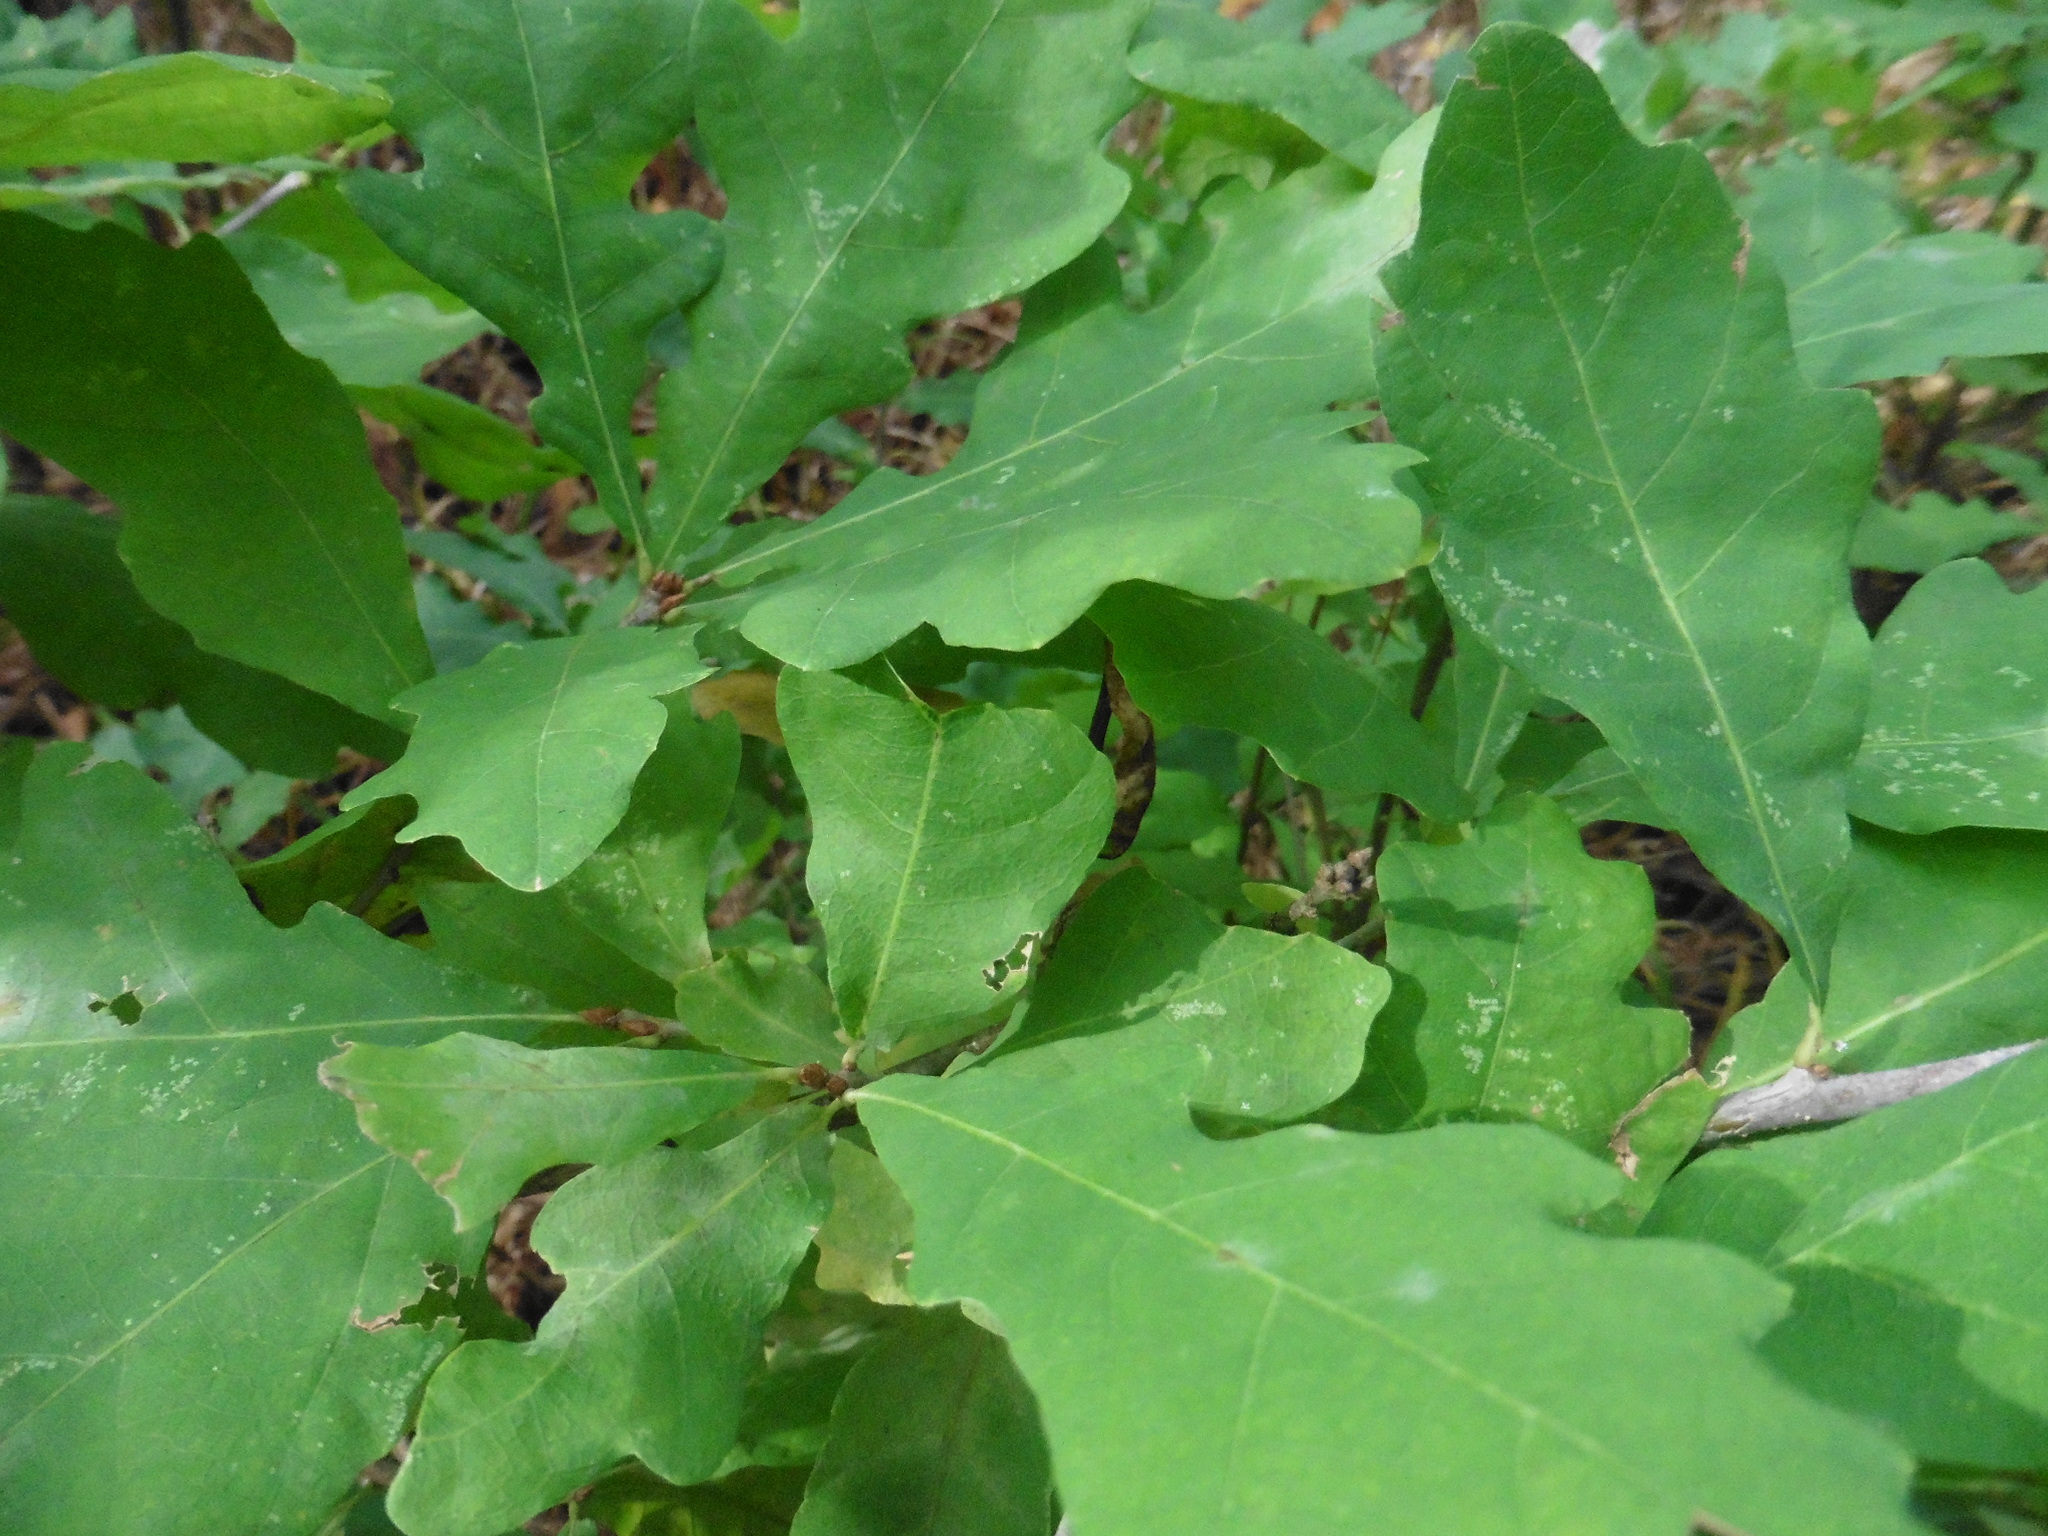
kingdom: Plantae
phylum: Tracheophyta
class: Magnoliopsida
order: Fagales
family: Fagaceae
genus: Quercus
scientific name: Quercus robur
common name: Pedunculate oak
